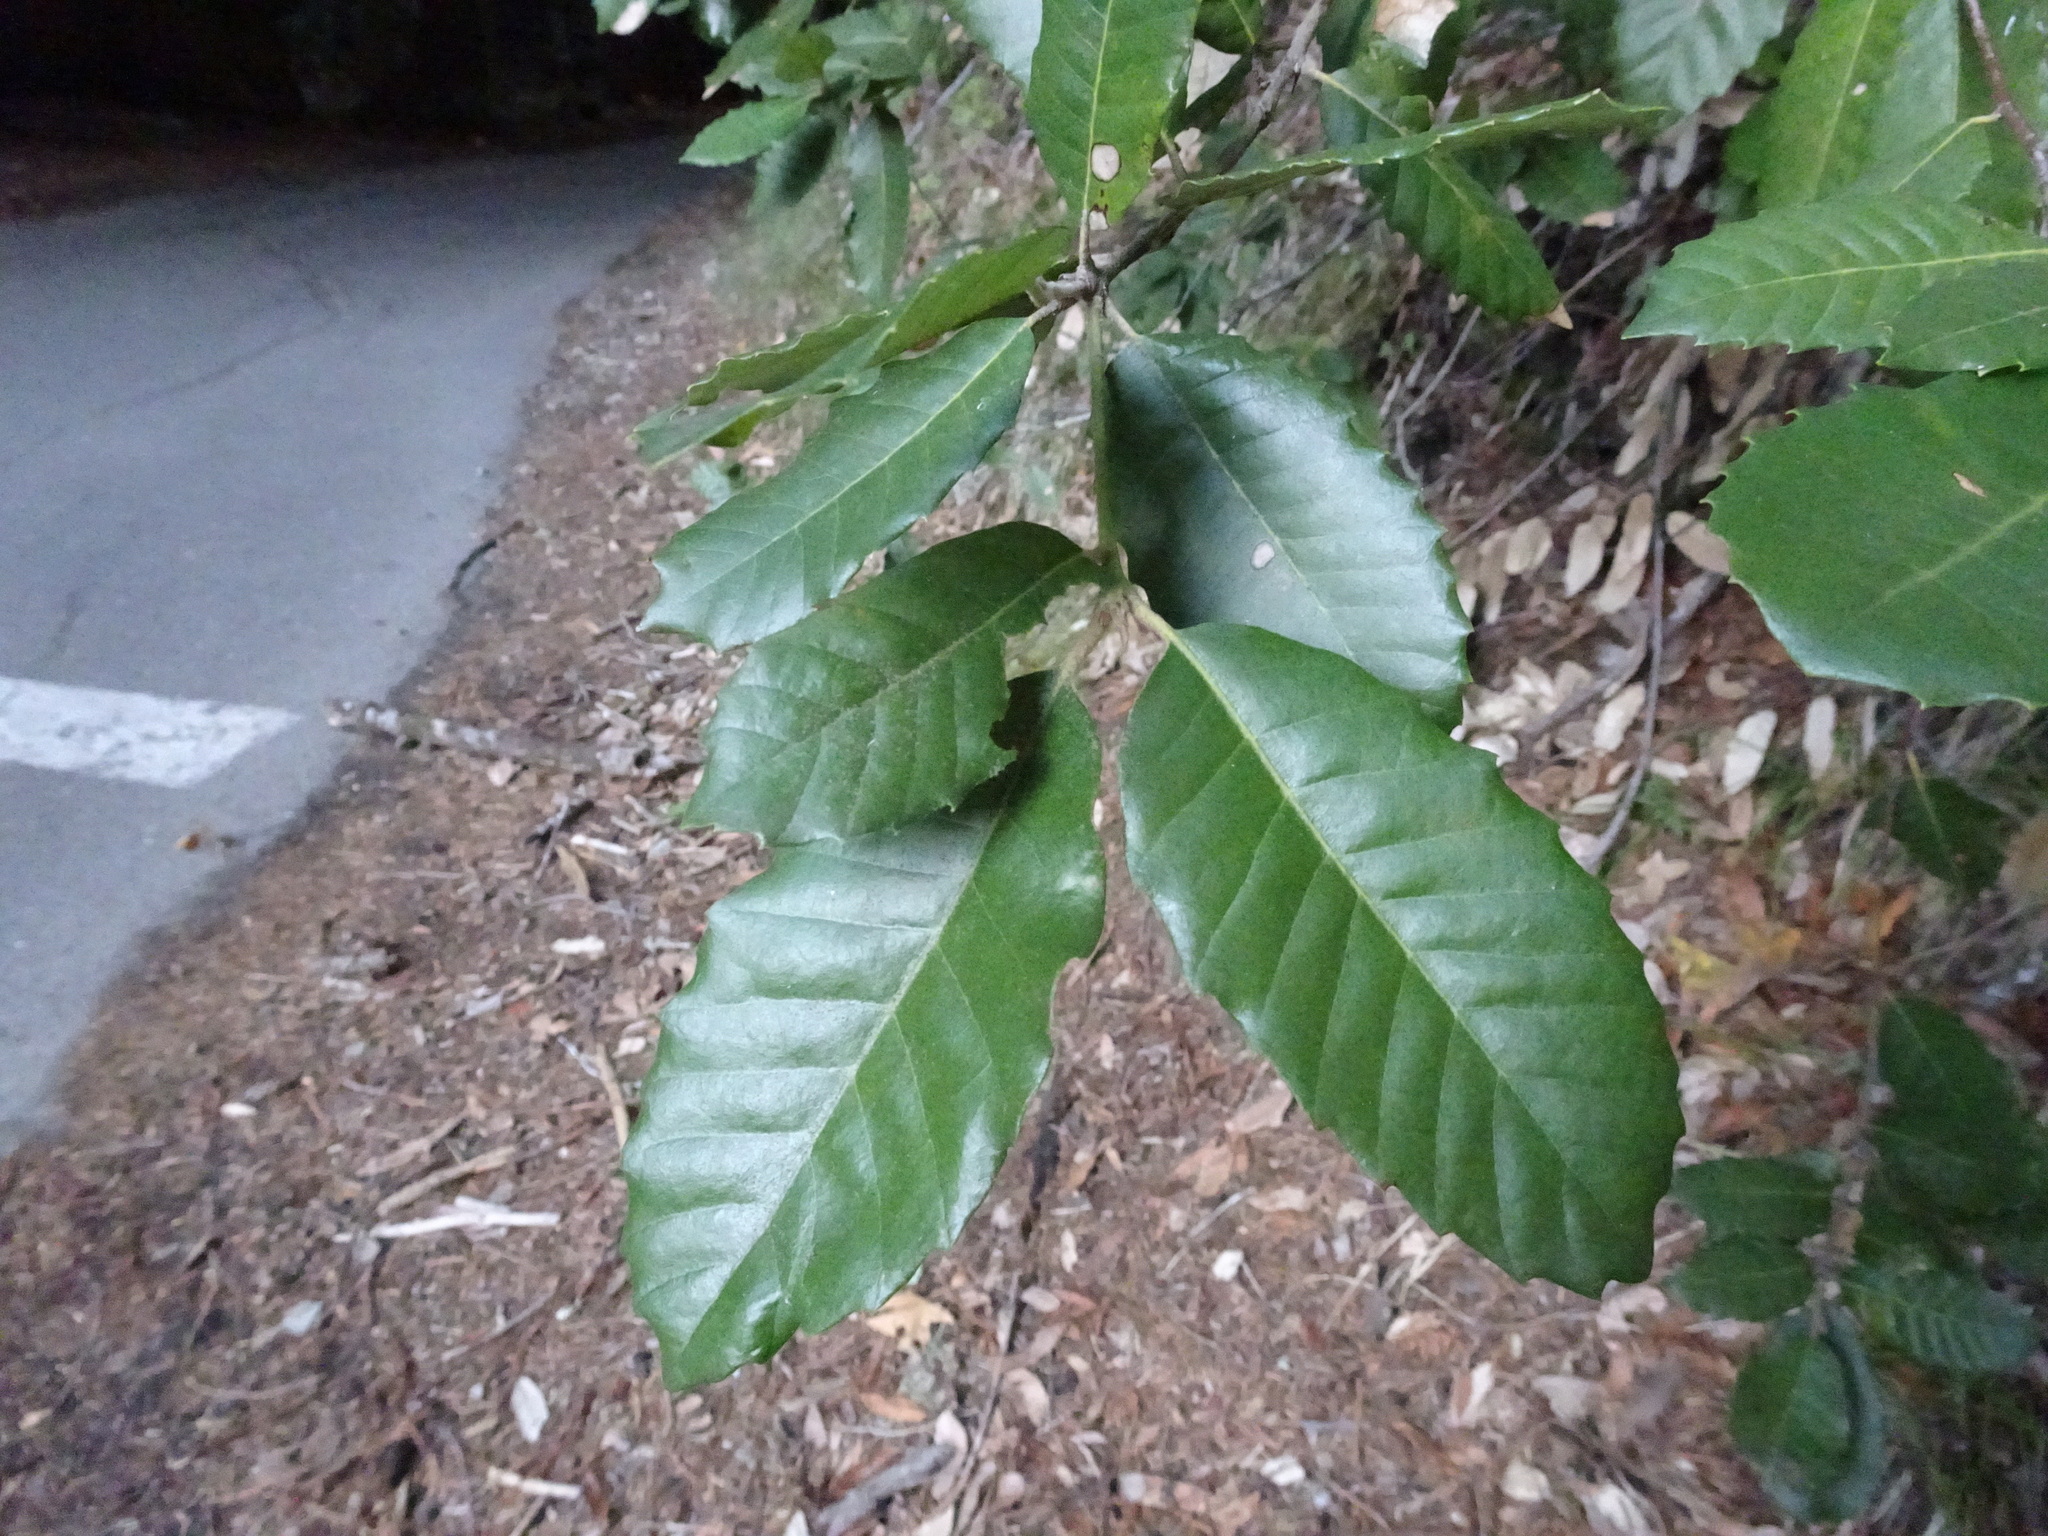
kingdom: Plantae
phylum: Tracheophyta
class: Magnoliopsida
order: Fagales
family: Fagaceae
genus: Notholithocarpus
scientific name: Notholithocarpus densiflorus
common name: Tan bark oak
